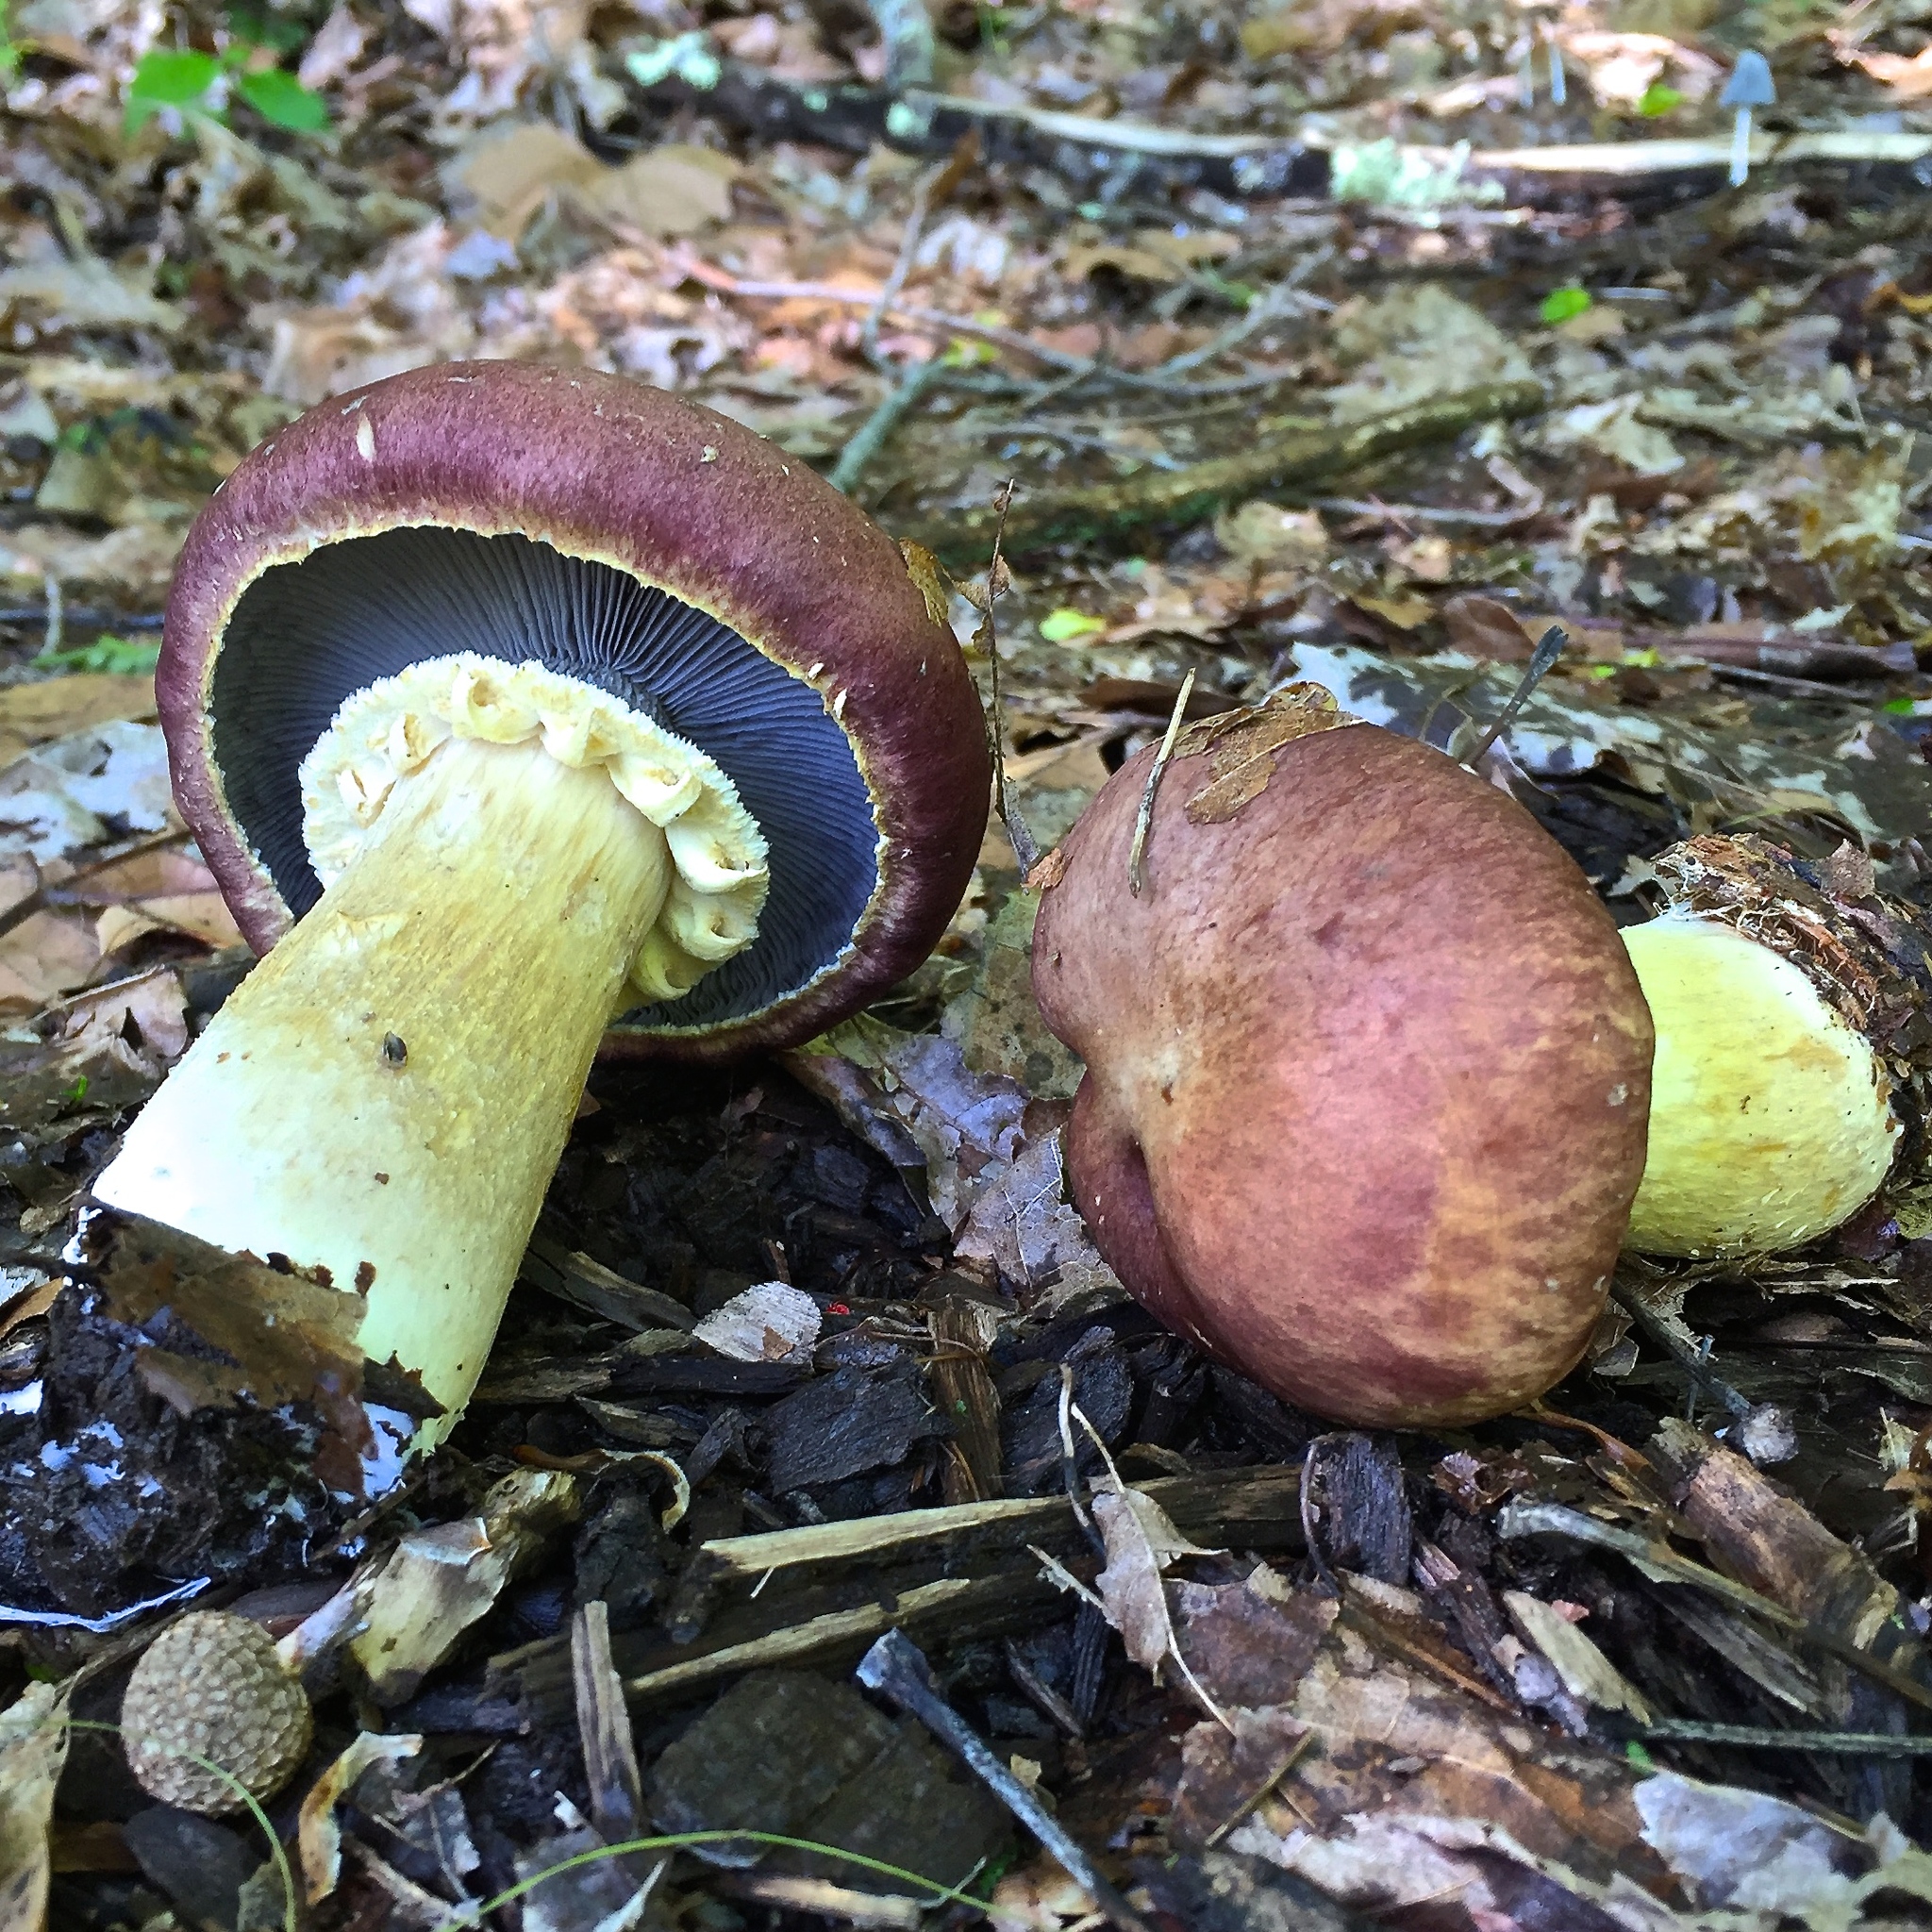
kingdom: Fungi
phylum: Basidiomycota
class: Agaricomycetes
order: Agaricales
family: Strophariaceae
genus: Stropharia
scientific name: Stropharia rugosoannulata
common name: Wine roundhead
